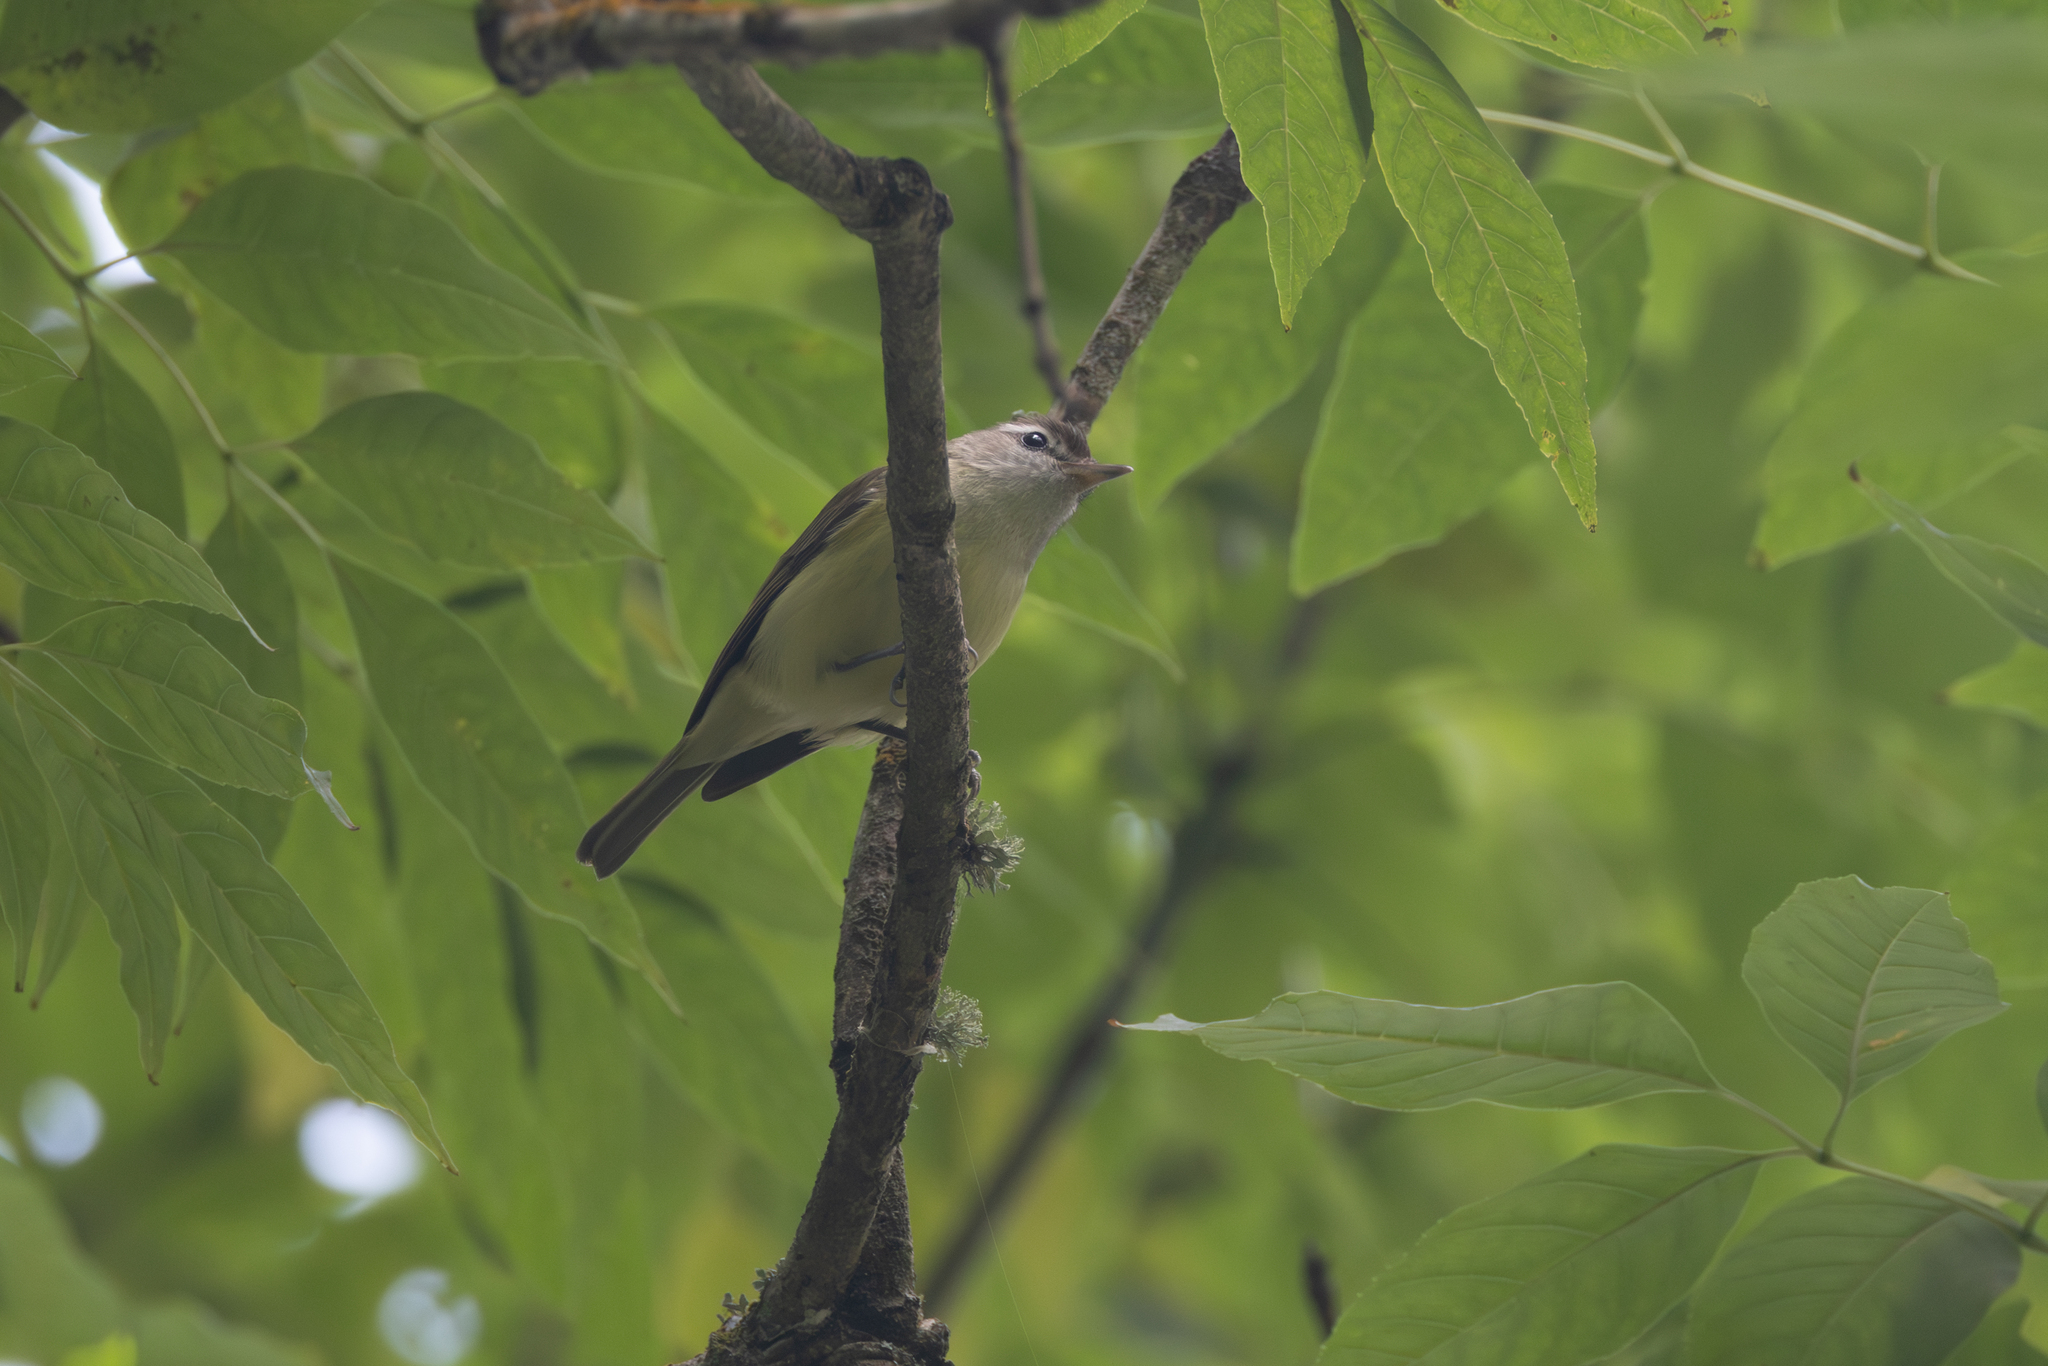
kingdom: Animalia
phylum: Chordata
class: Aves
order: Passeriformes
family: Vireonidae
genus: Vireo
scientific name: Vireo leucophrys
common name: Brown-capped vireo
